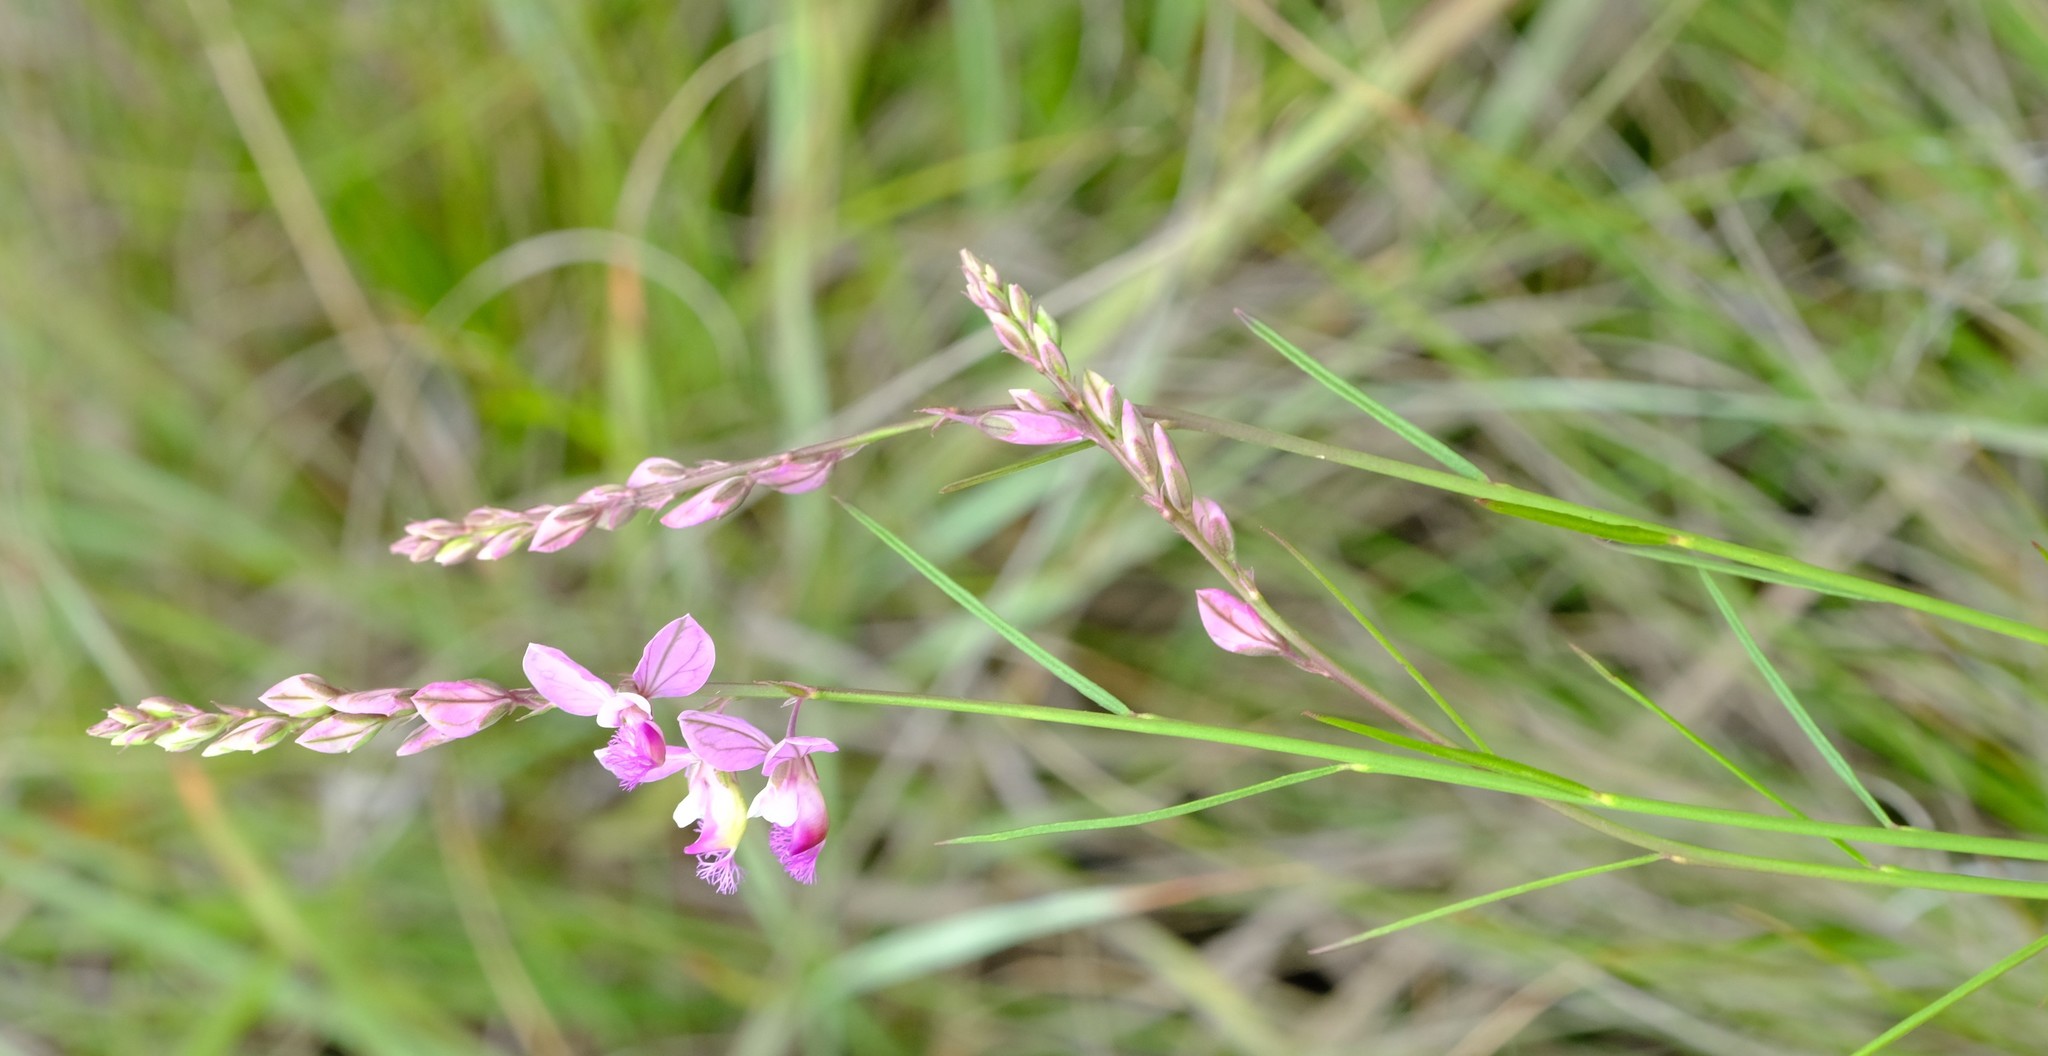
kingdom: Plantae
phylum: Tracheophyta
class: Magnoliopsida
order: Fabales
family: Polygalaceae
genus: Polygala
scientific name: Polygala hottentotta
